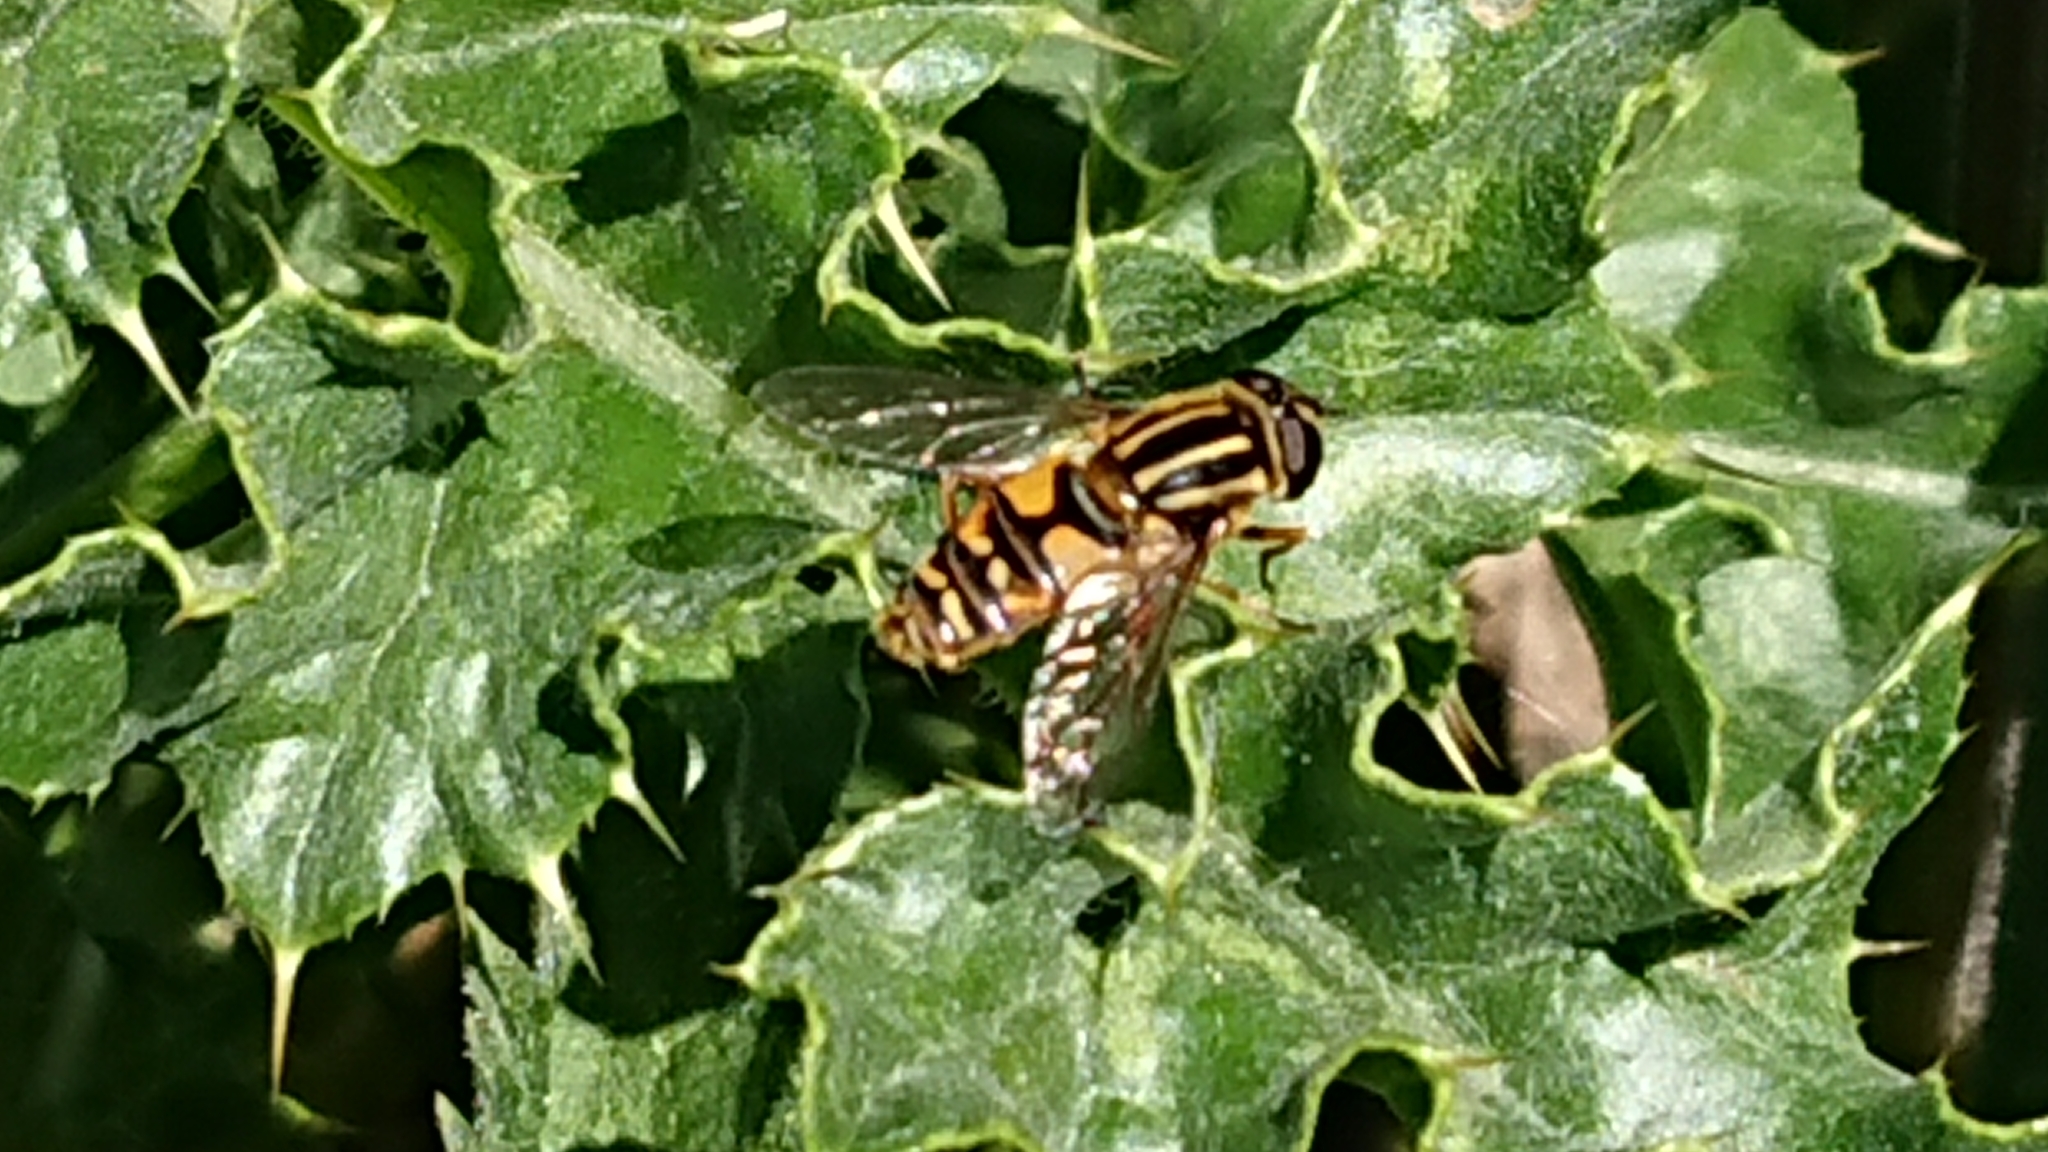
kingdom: Animalia
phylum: Arthropoda
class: Insecta
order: Diptera
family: Syrphidae
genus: Helophilus
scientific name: Helophilus pendulus
